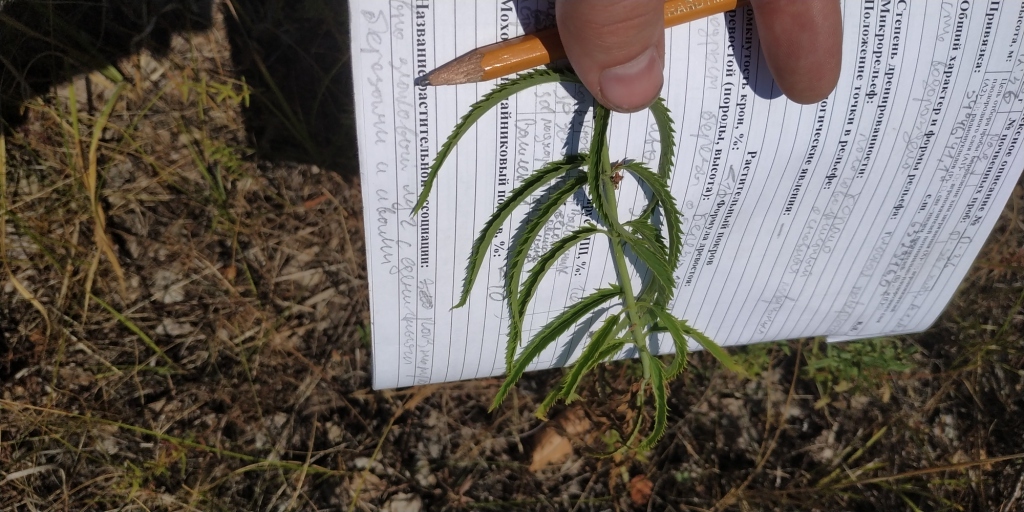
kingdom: Plantae
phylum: Tracheophyta
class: Magnoliopsida
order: Lamiales
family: Plantaginaceae
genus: Veronica
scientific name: Veronica longifolia
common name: Garden speedwell
